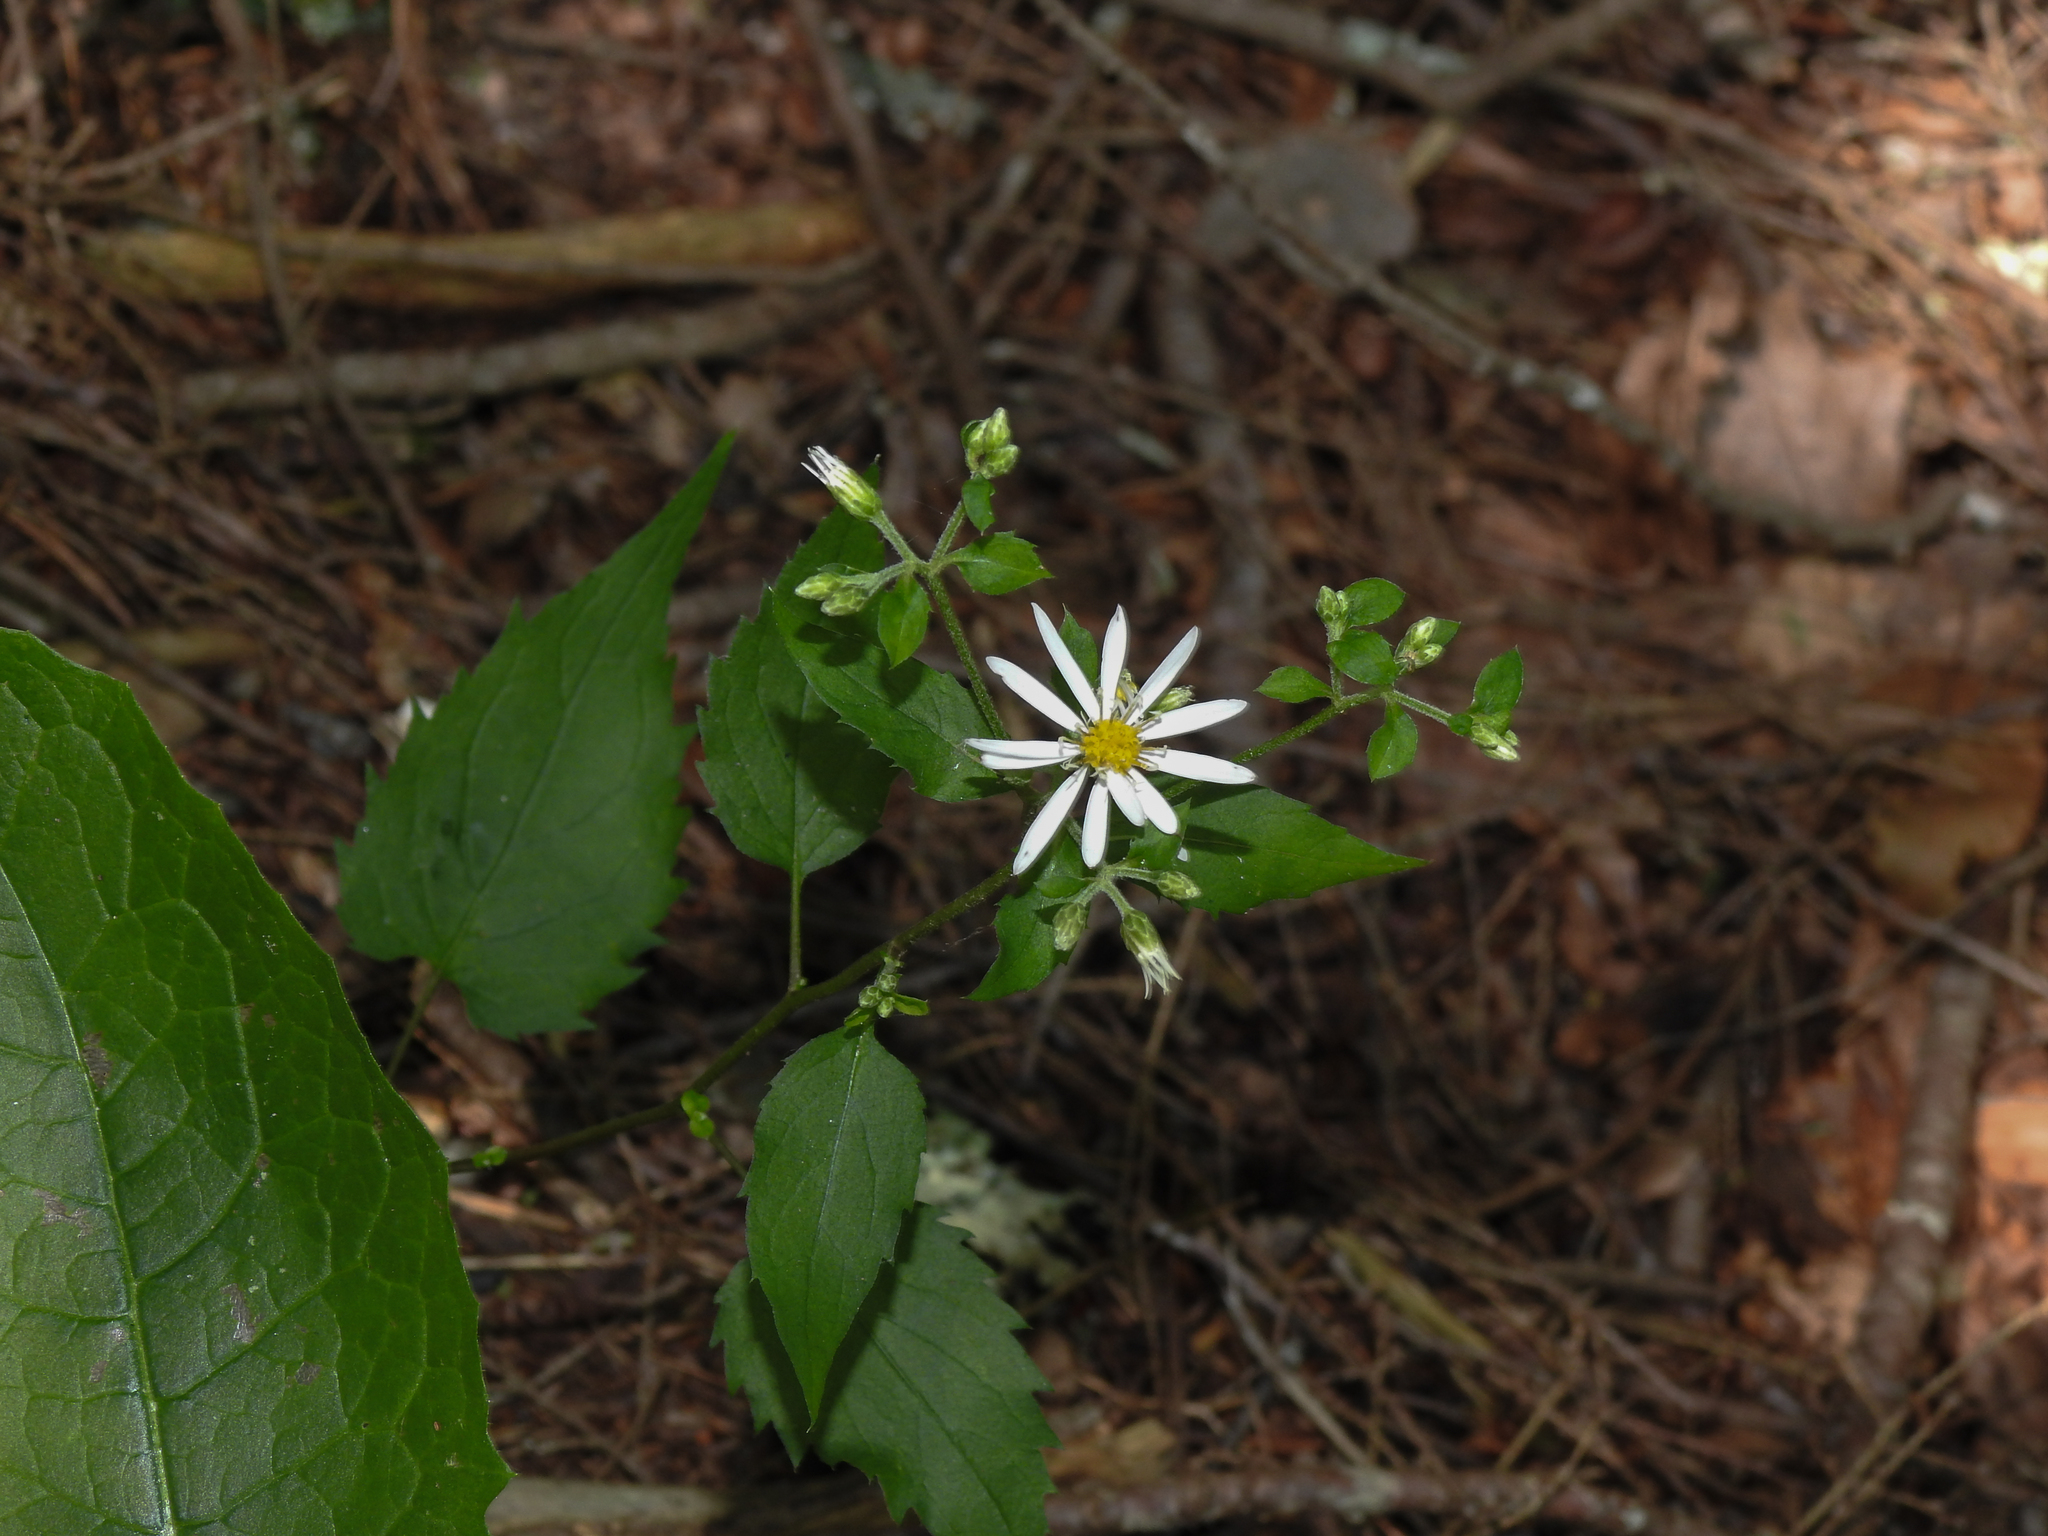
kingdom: Plantae
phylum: Tracheophyta
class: Magnoliopsida
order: Asterales
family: Asteraceae
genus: Eurybia
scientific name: Eurybia divaricata
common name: White wood aster
